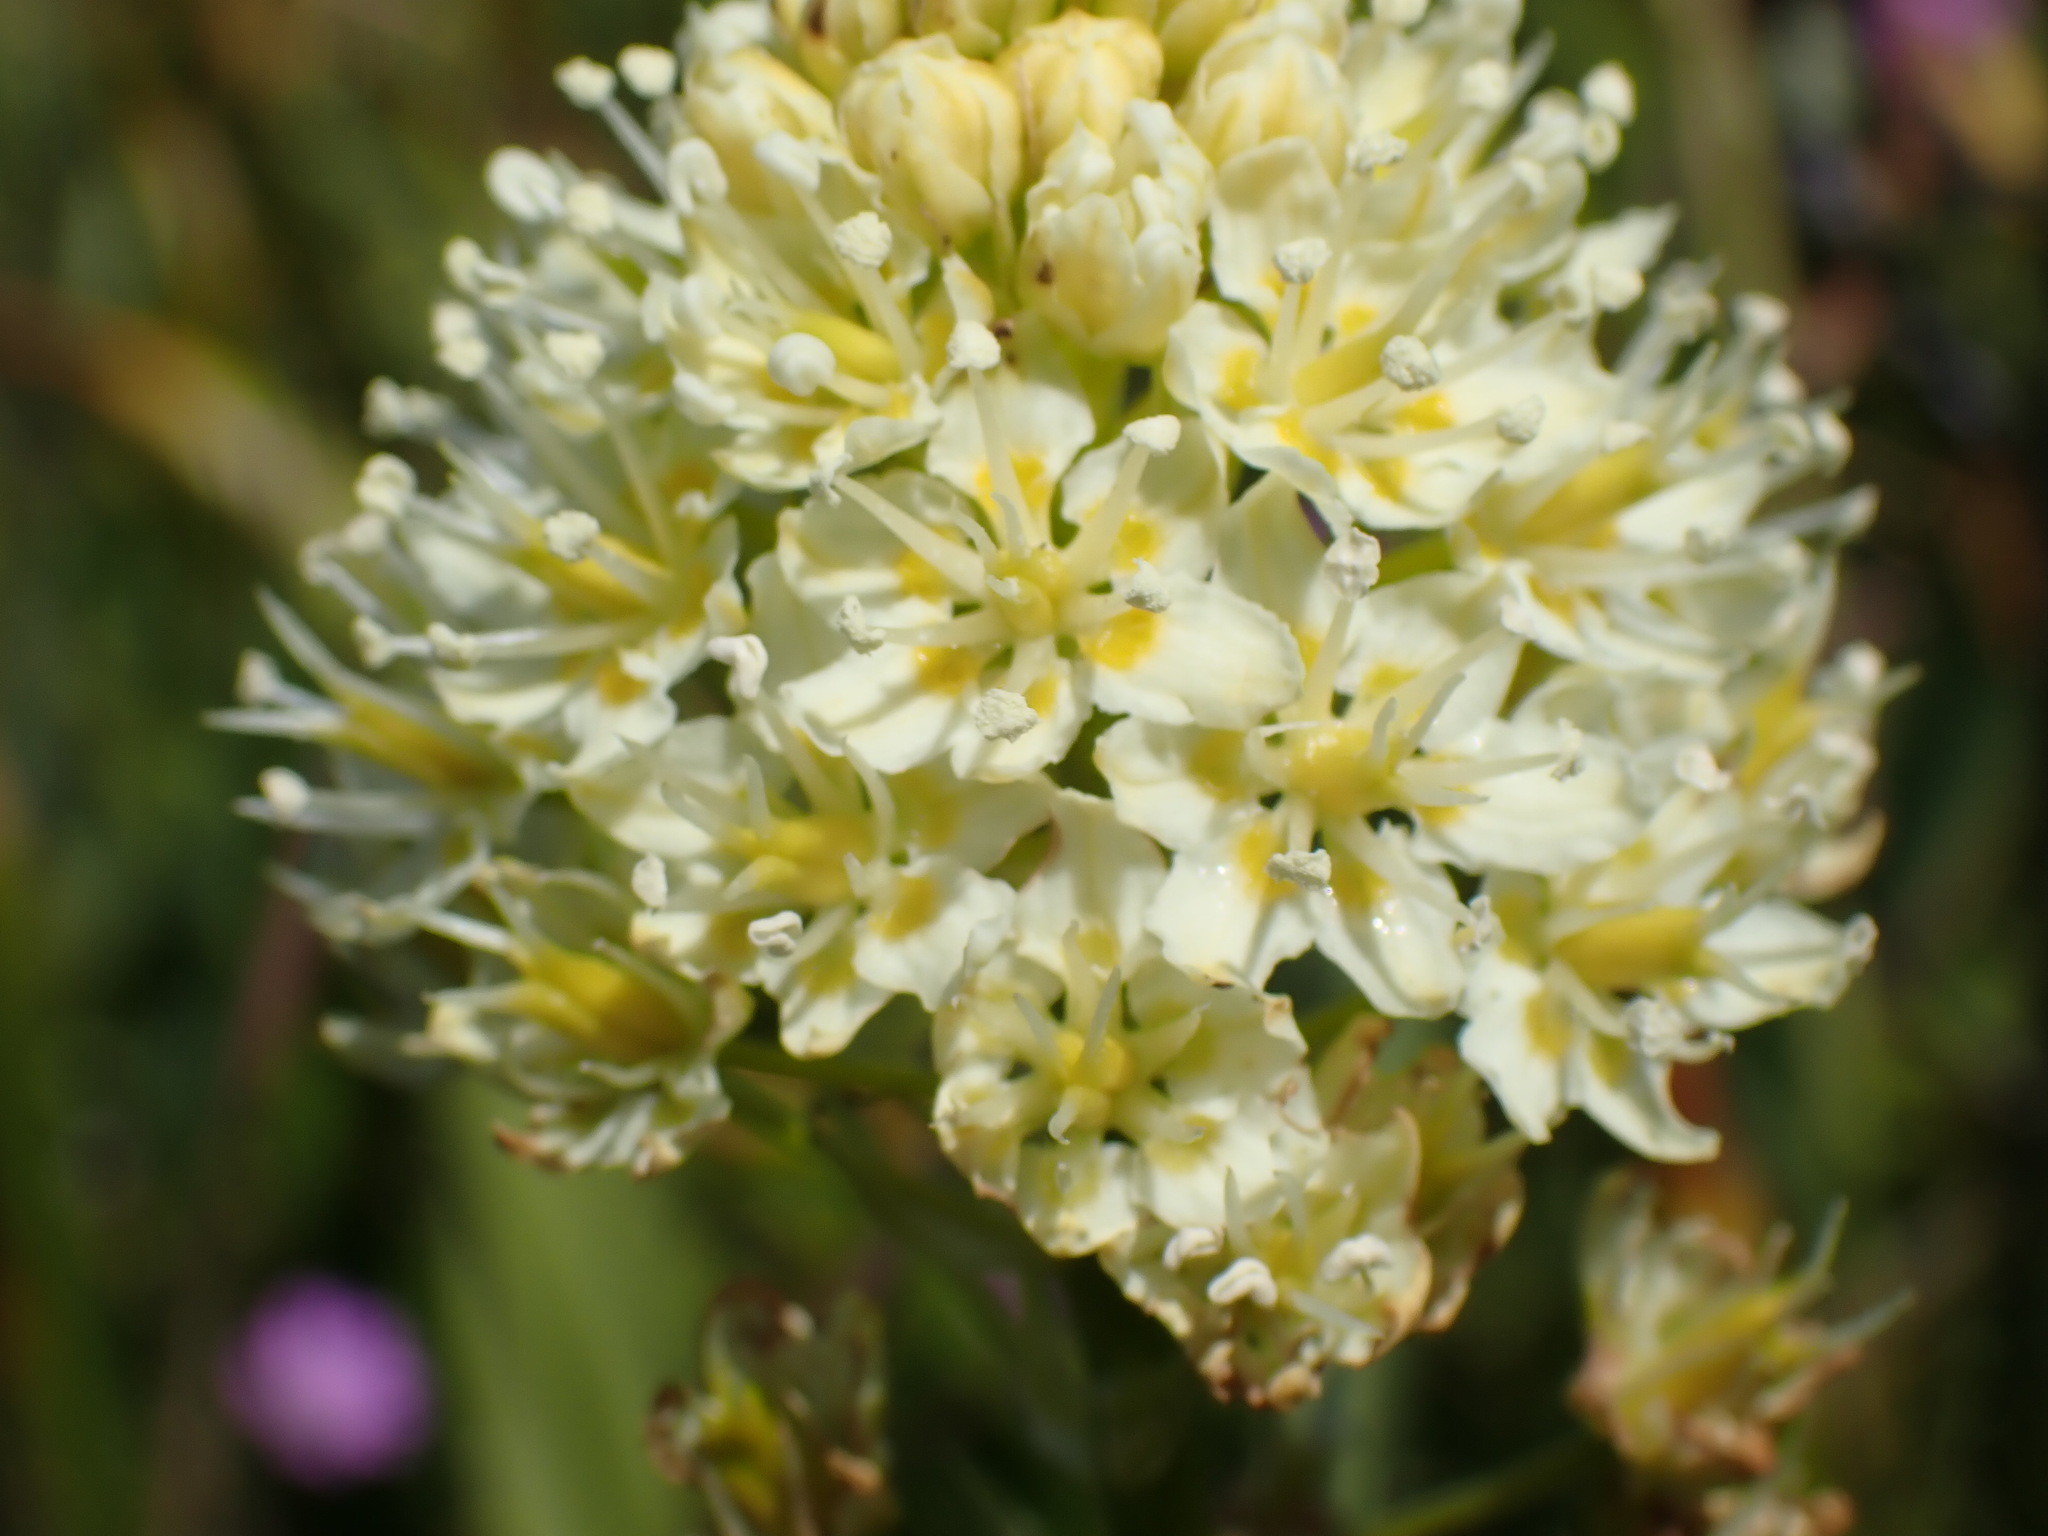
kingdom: Plantae
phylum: Tracheophyta
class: Liliopsida
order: Liliales
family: Melanthiaceae
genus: Toxicoscordion
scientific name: Toxicoscordion venenosum
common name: Meadow death camas
